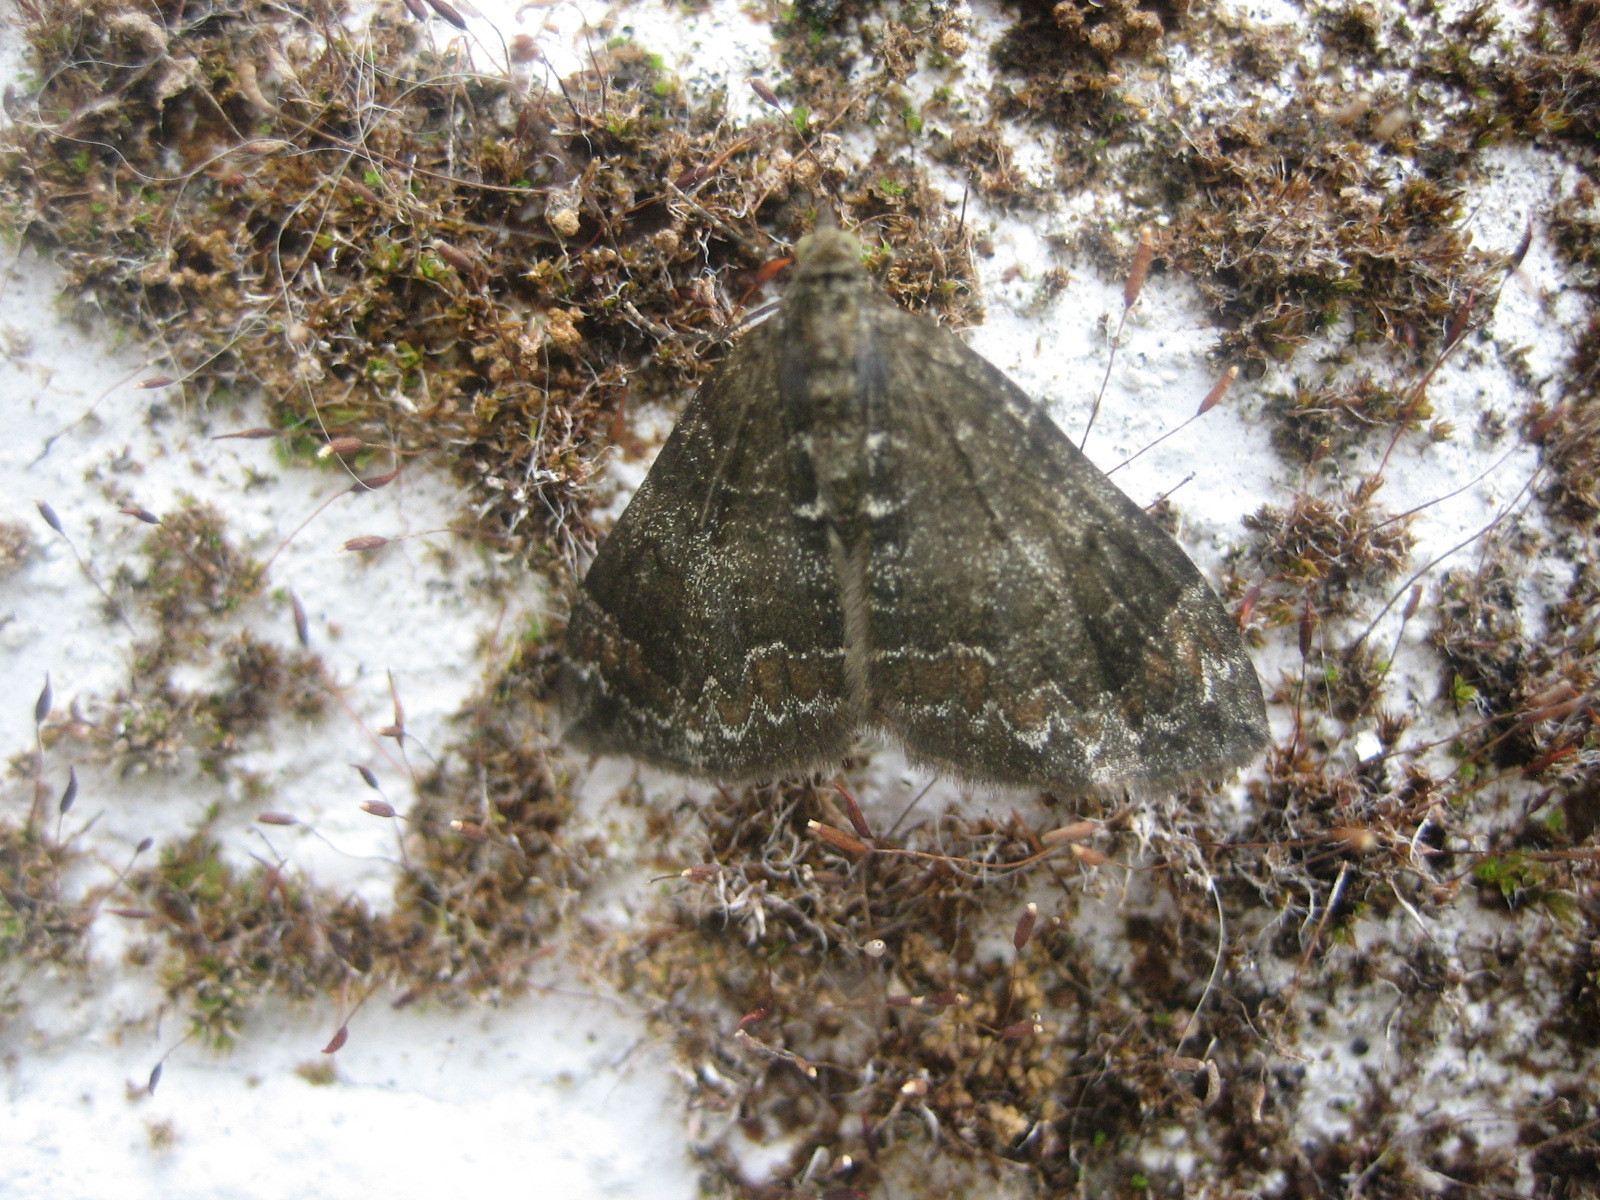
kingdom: Animalia
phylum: Arthropoda
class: Insecta
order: Lepidoptera
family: Geometridae
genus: Dysstroma
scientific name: Dysstroma truncata
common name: Common marbled carpet
